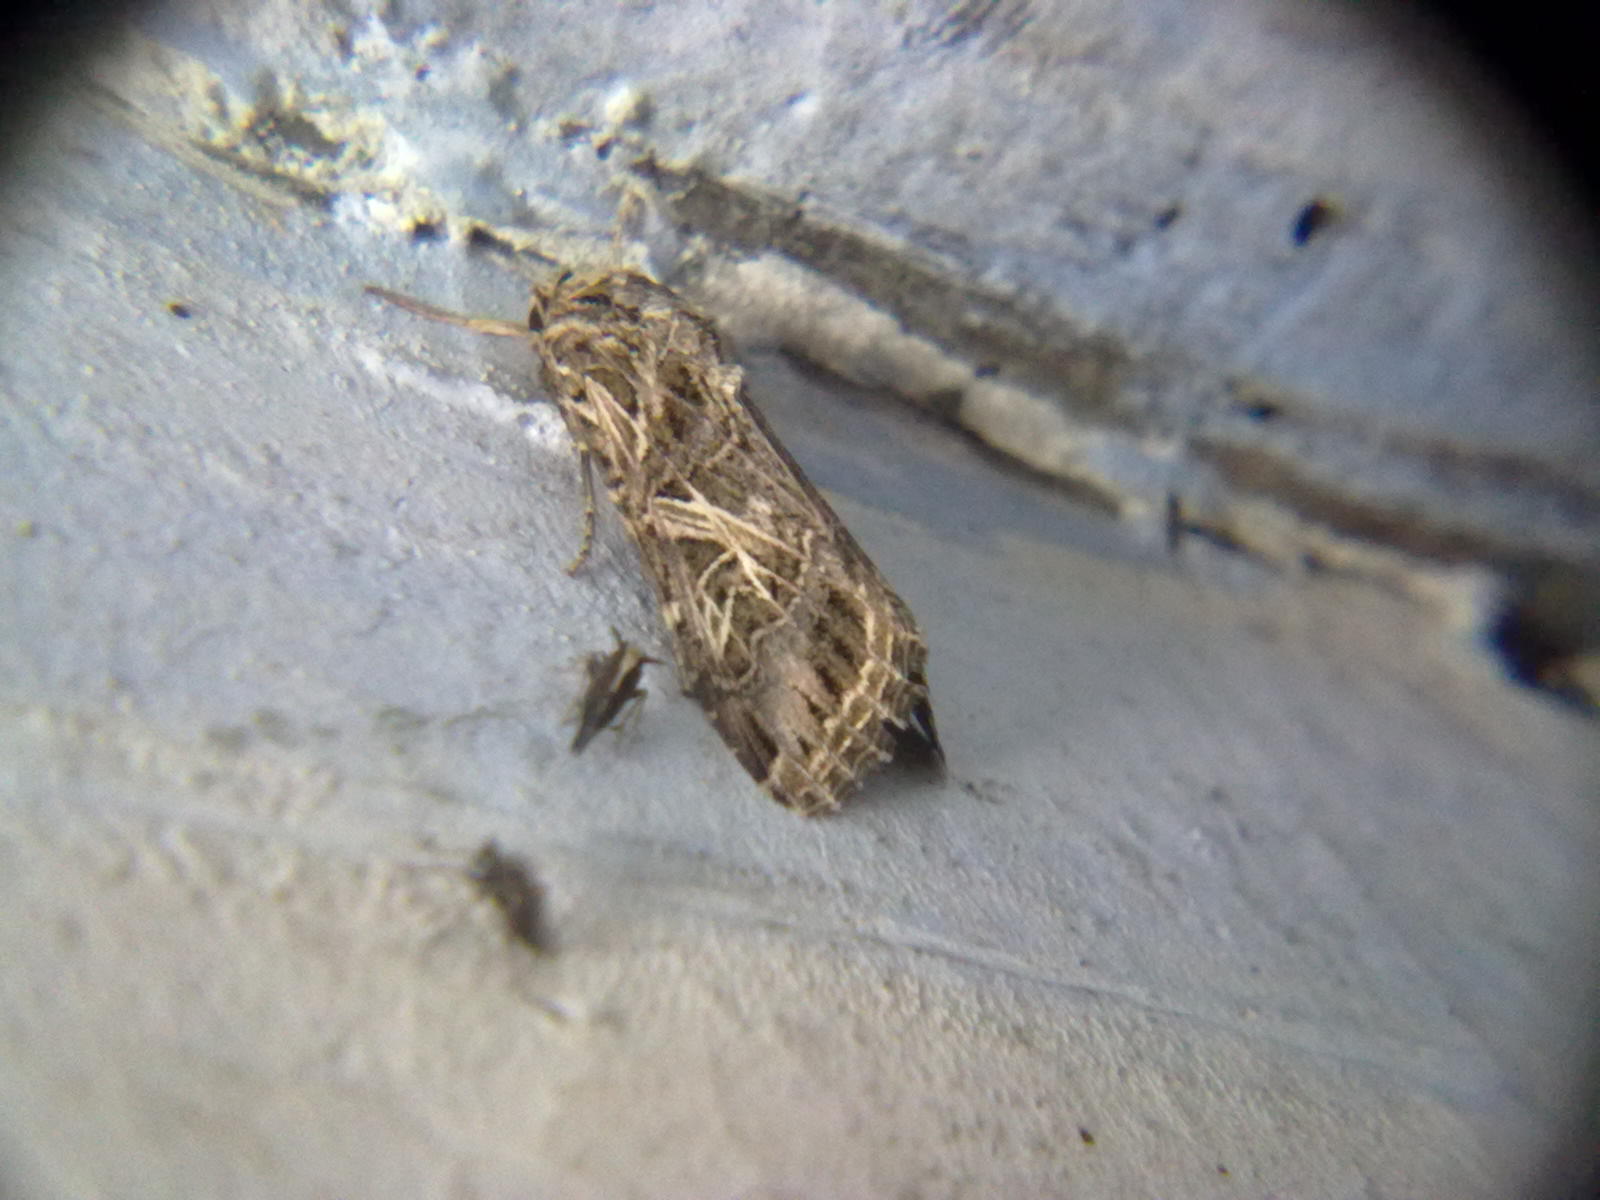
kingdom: Animalia
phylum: Arthropoda
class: Insecta
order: Lepidoptera
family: Noctuidae
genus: Spodoptera
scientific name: Spodoptera litura
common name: Asian cotton leafworm
